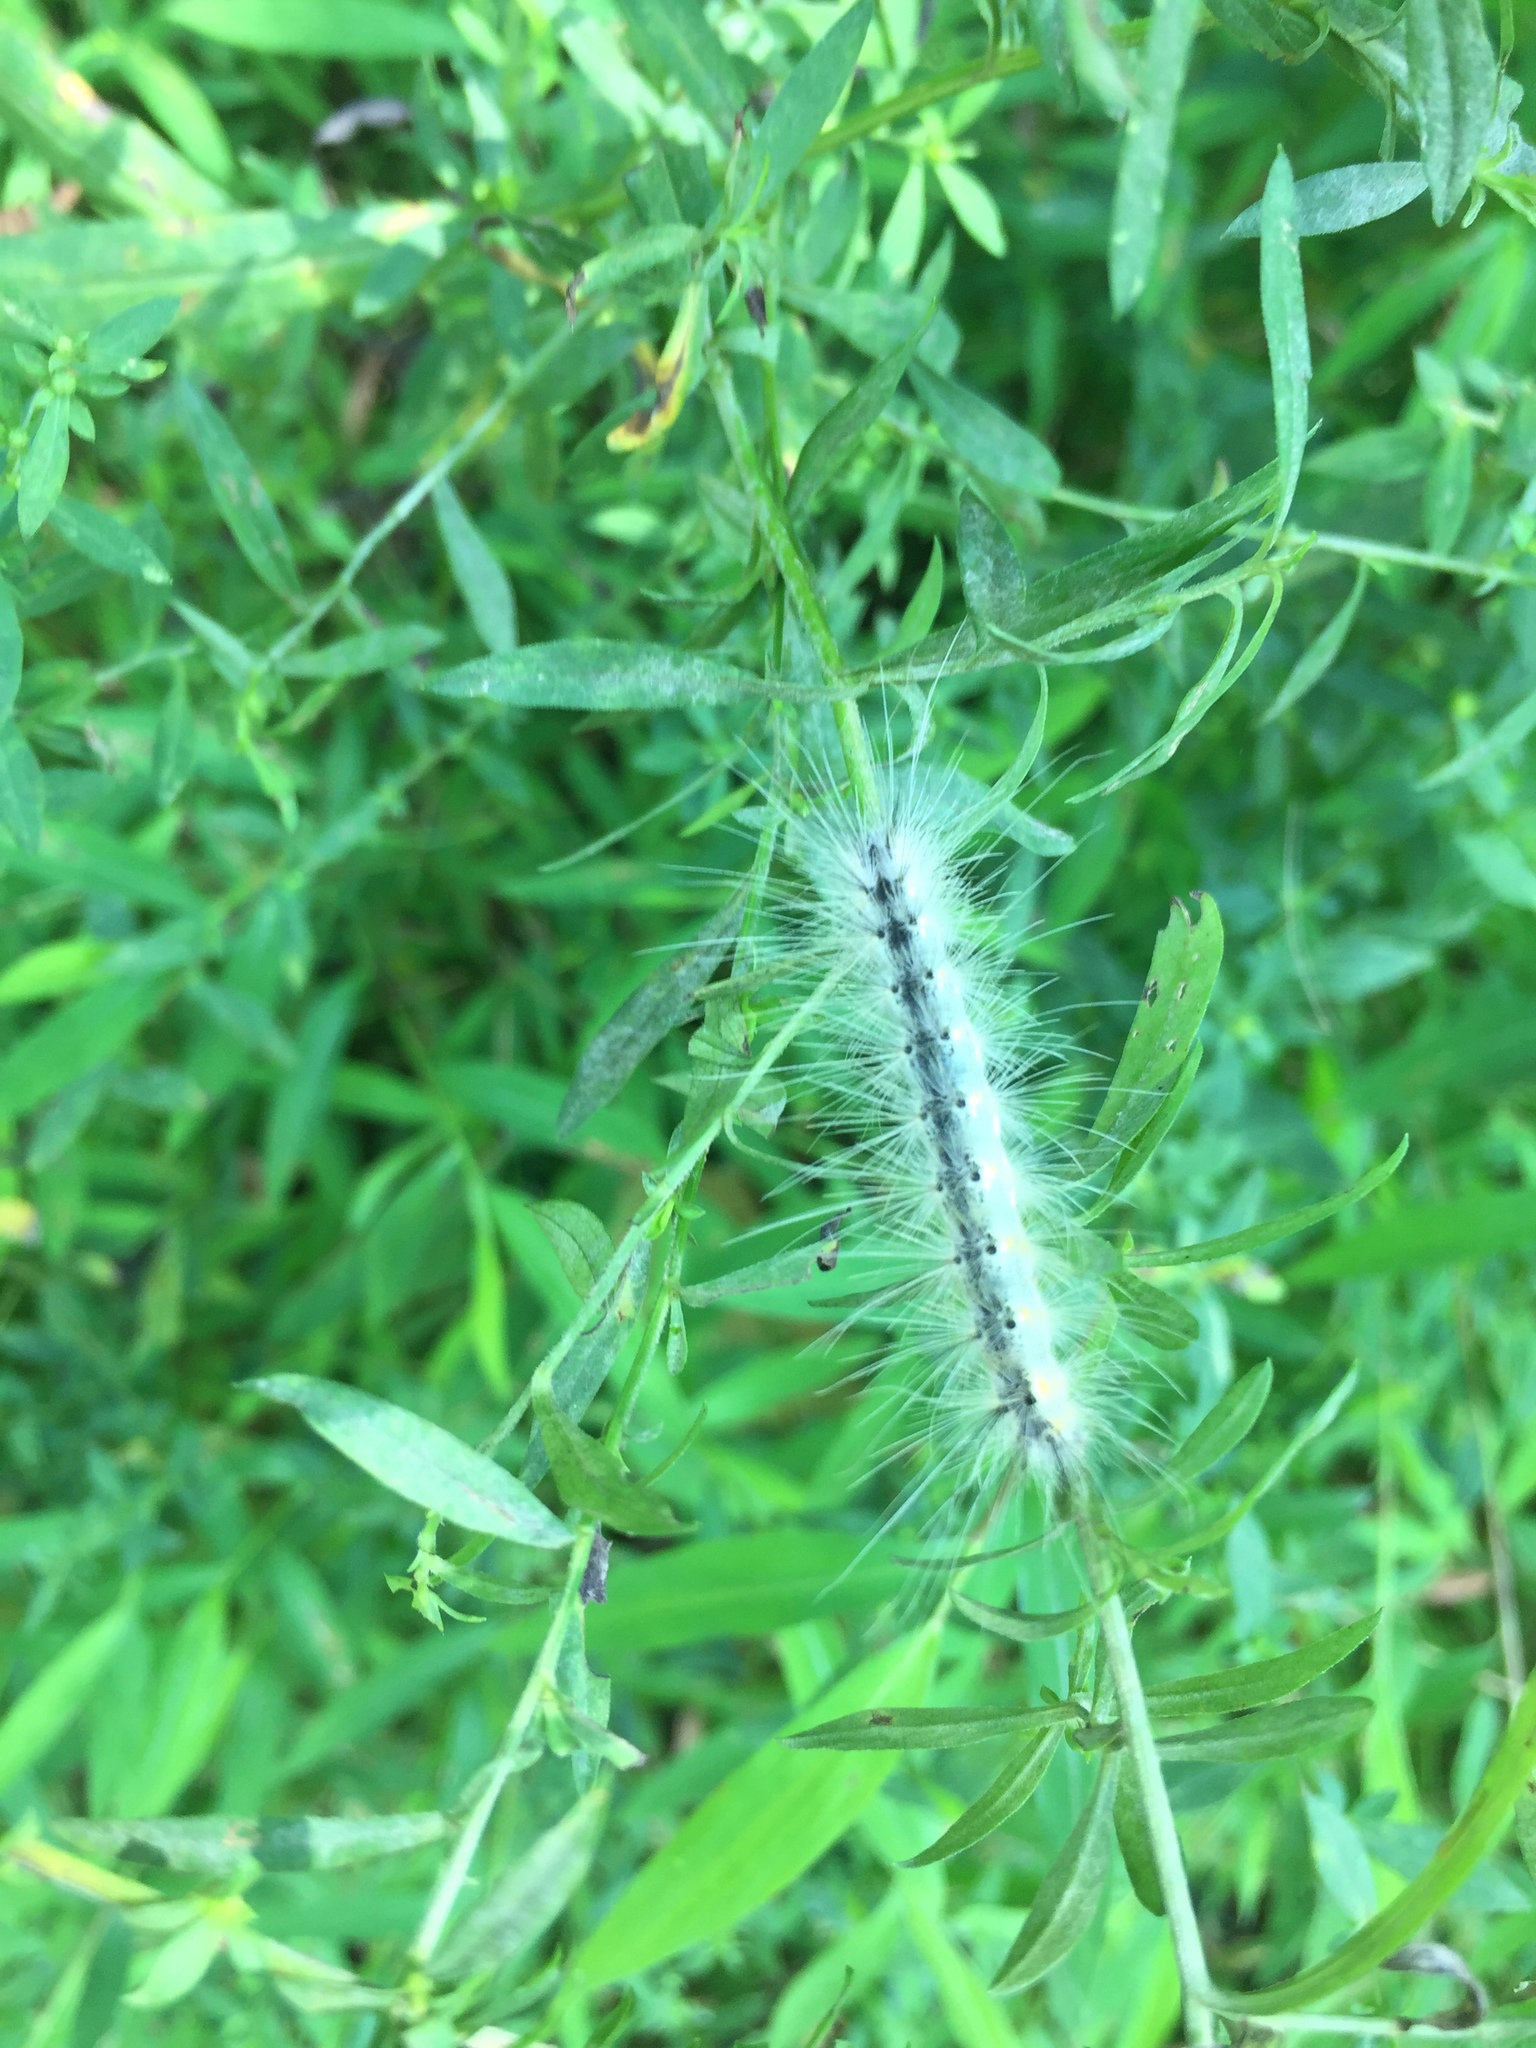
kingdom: Animalia
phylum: Arthropoda
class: Insecta
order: Lepidoptera
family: Erebidae
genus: Hyphantria
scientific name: Hyphantria cunea
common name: American white moth
